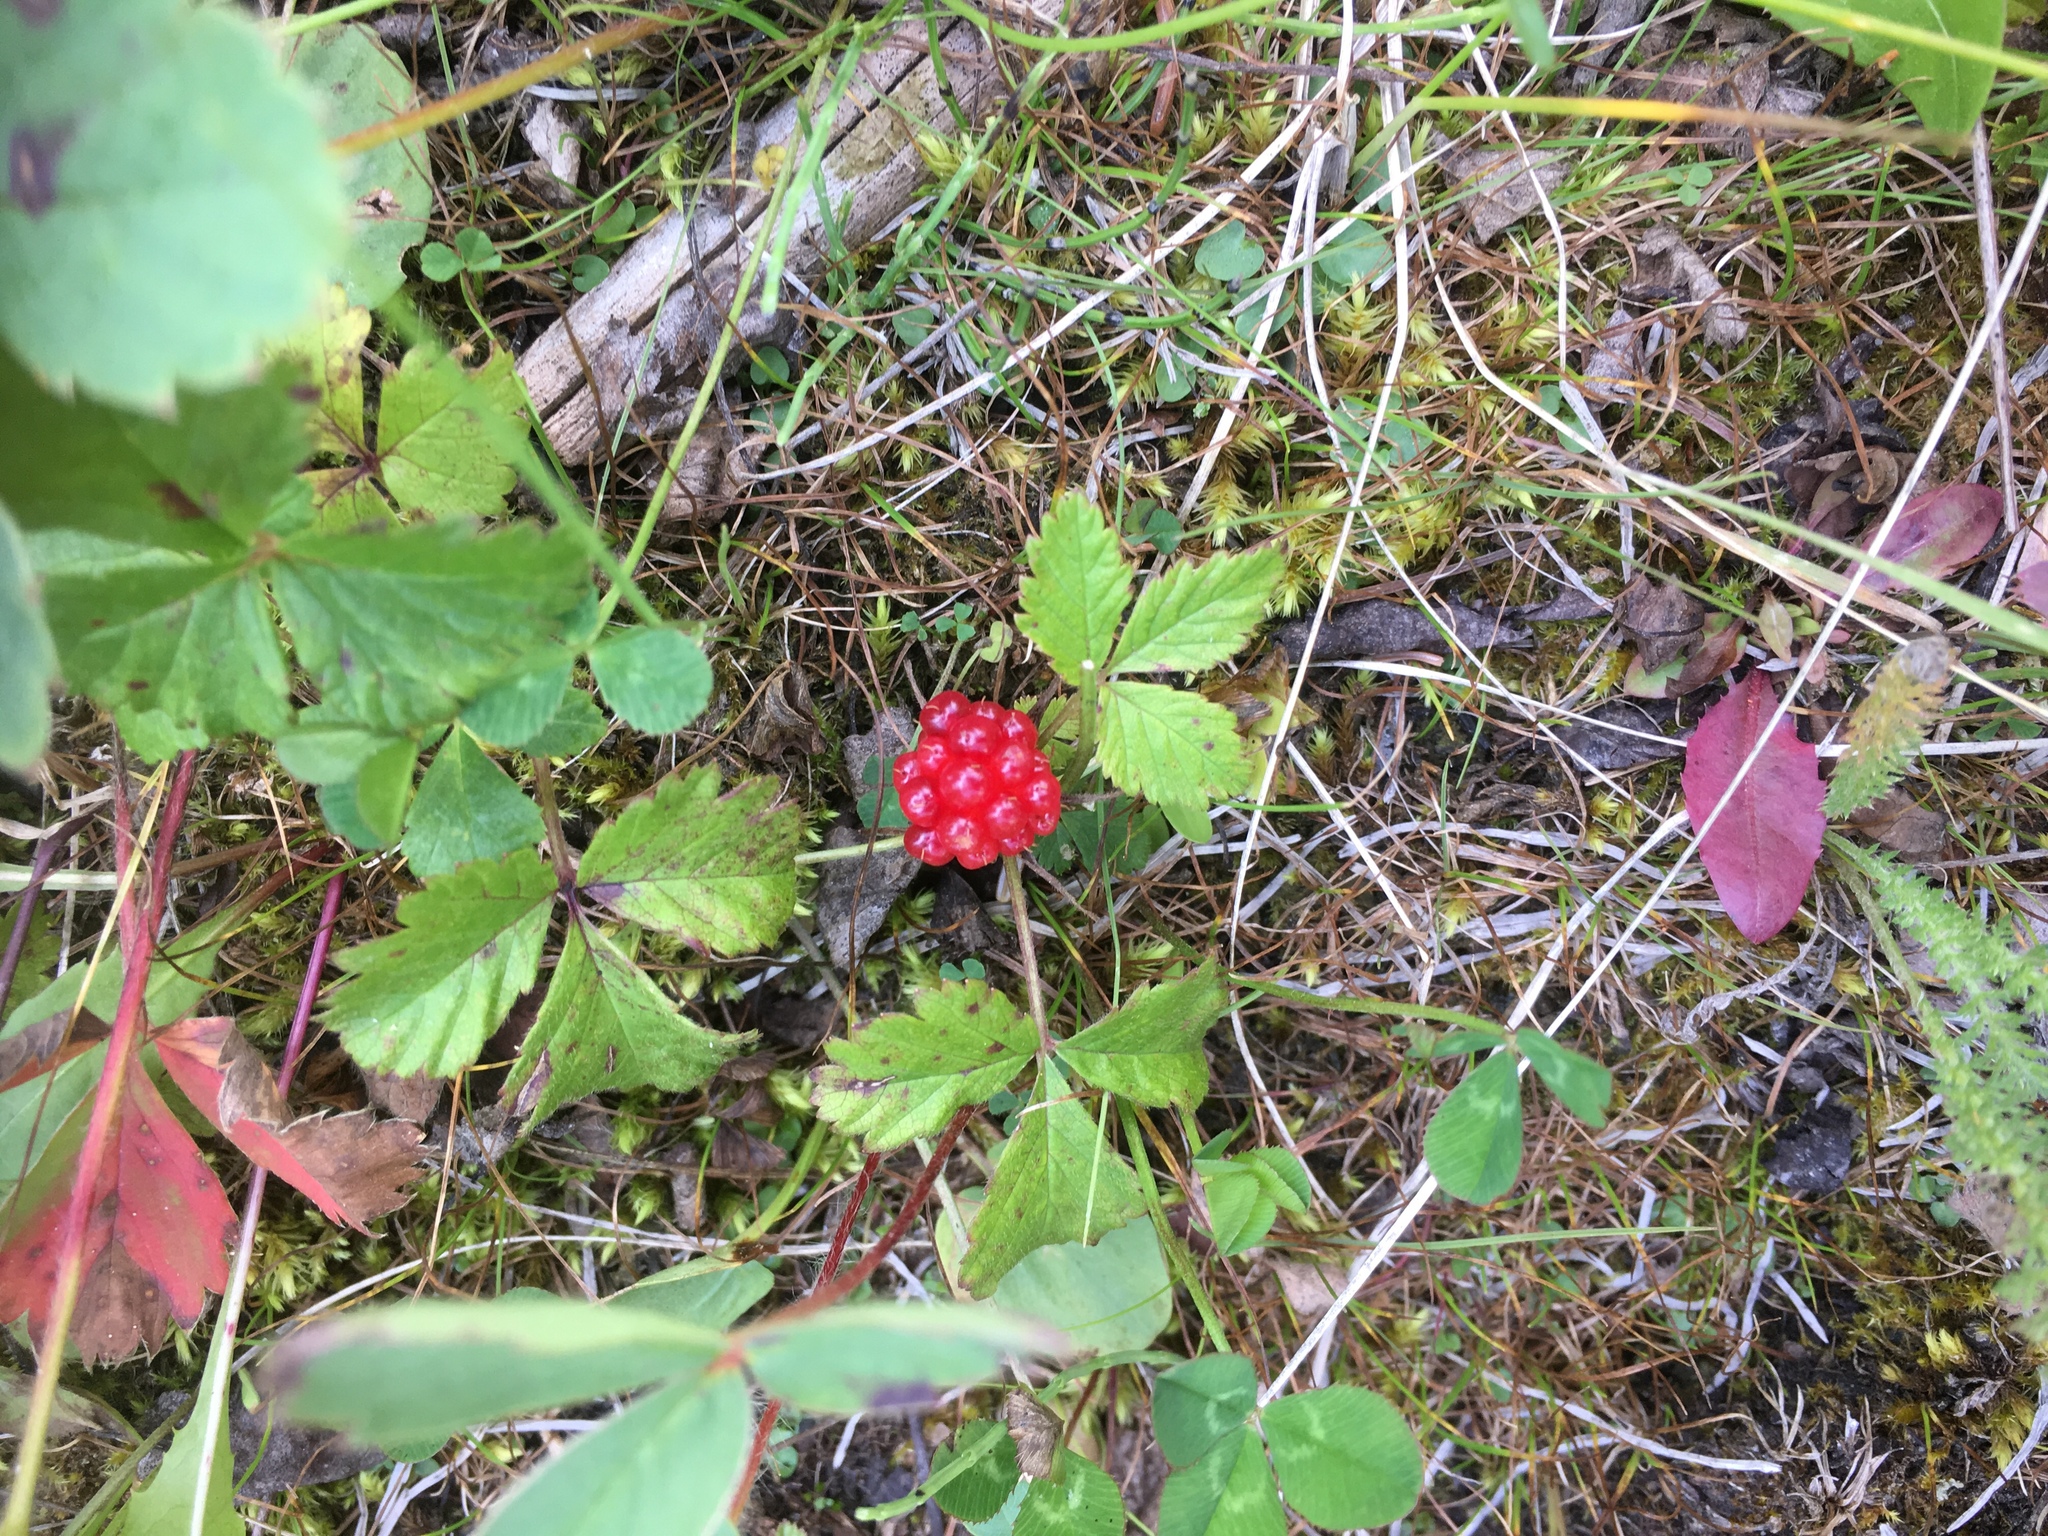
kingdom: Plantae
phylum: Tracheophyta
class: Magnoliopsida
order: Rosales
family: Rosaceae
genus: Rubus
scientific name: Rubus arcticus
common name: Arctic bramble
